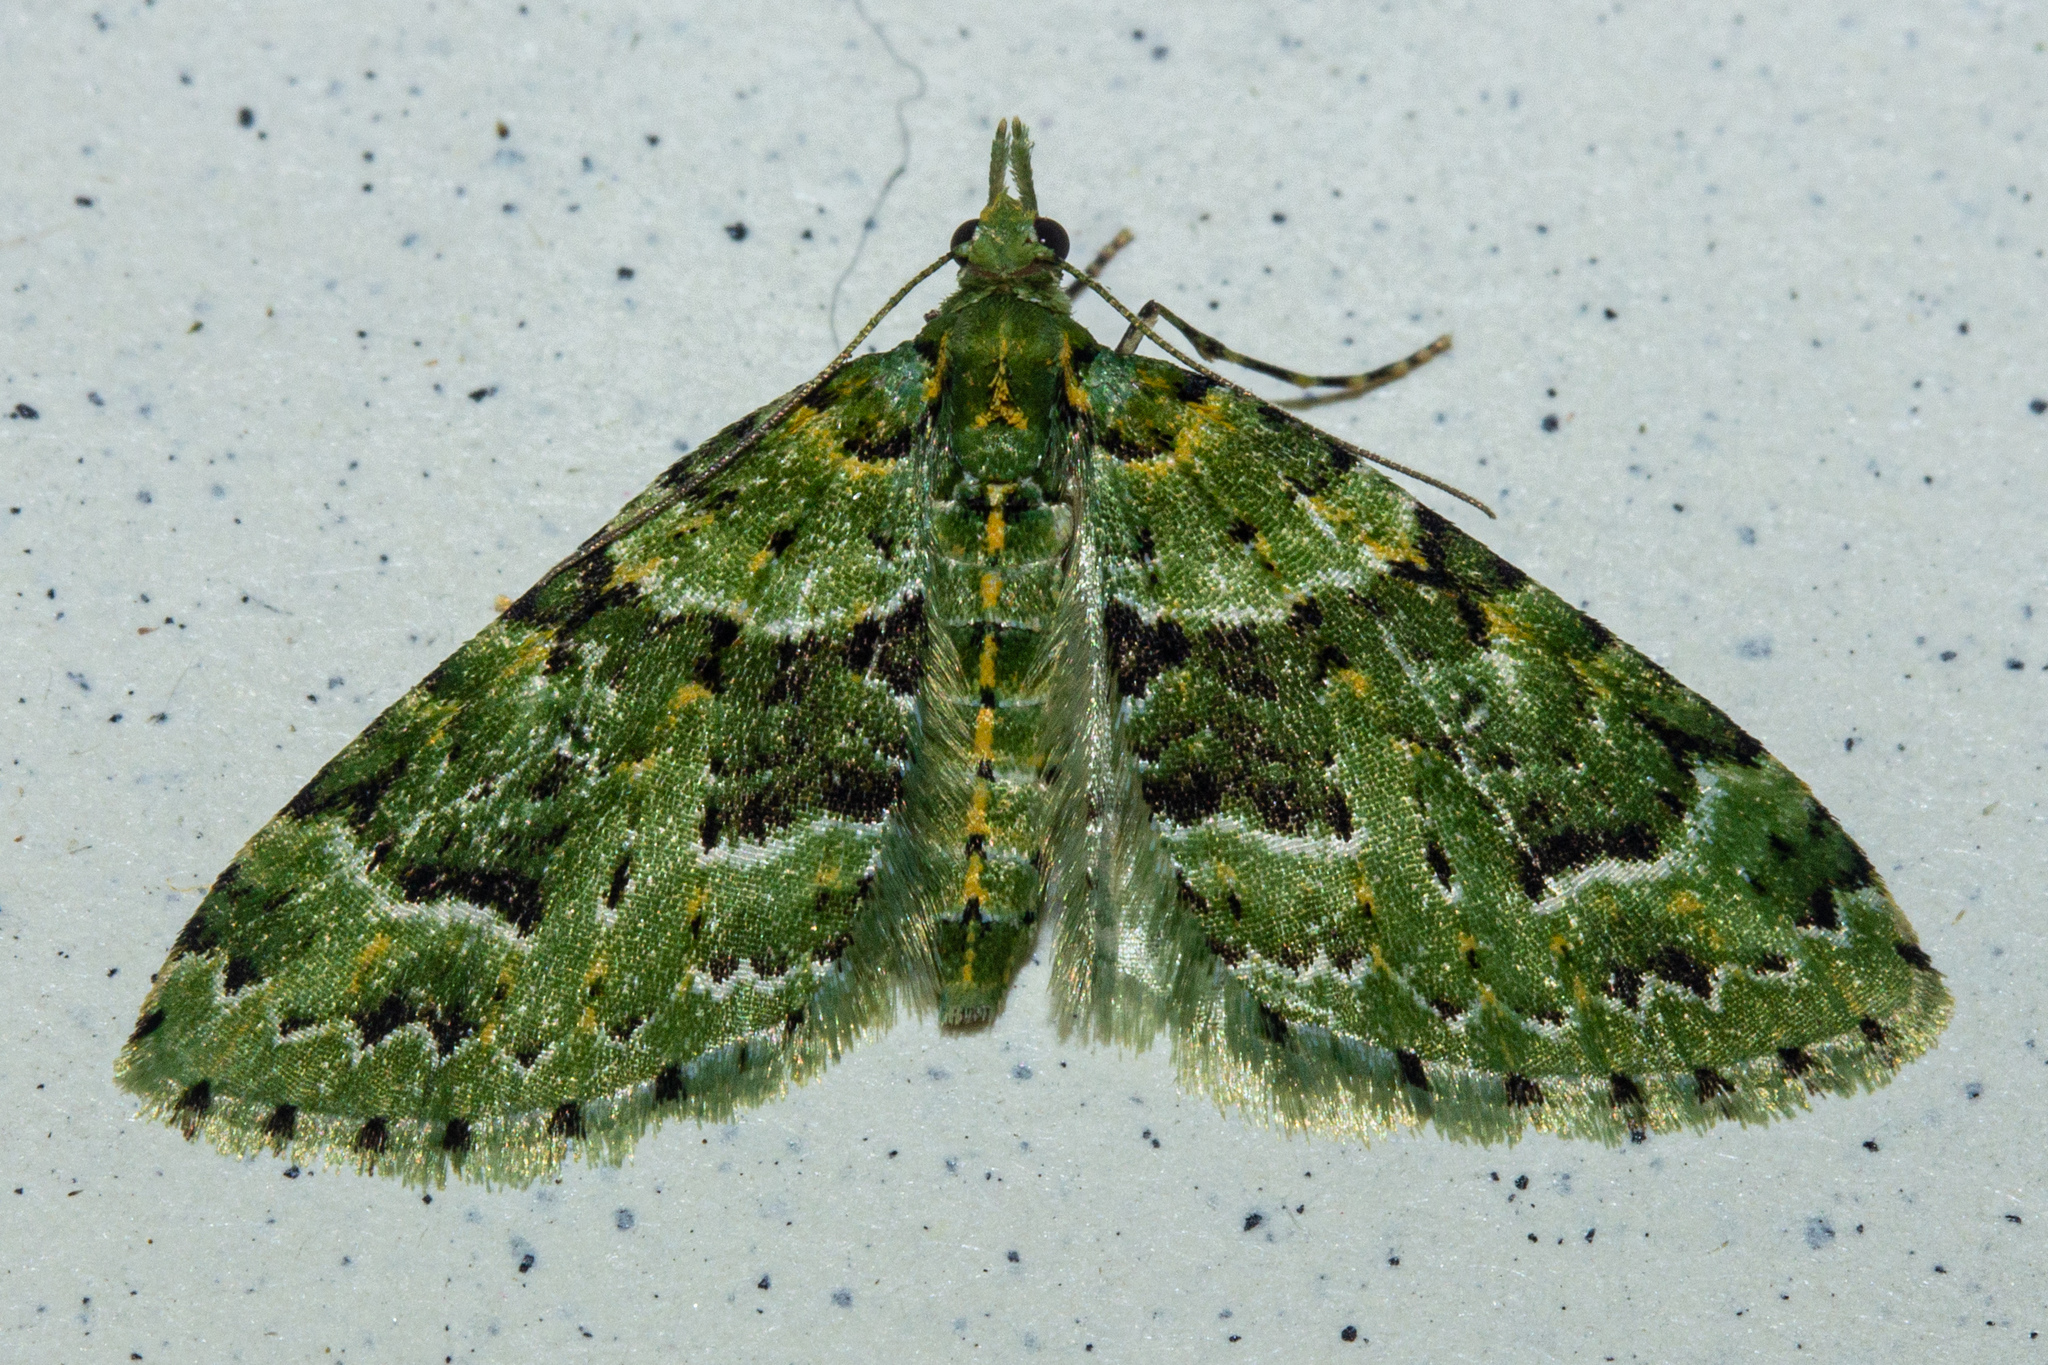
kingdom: Animalia
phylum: Arthropoda
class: Insecta
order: Lepidoptera
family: Geometridae
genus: Pasiphila
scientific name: Pasiphila melochlora
